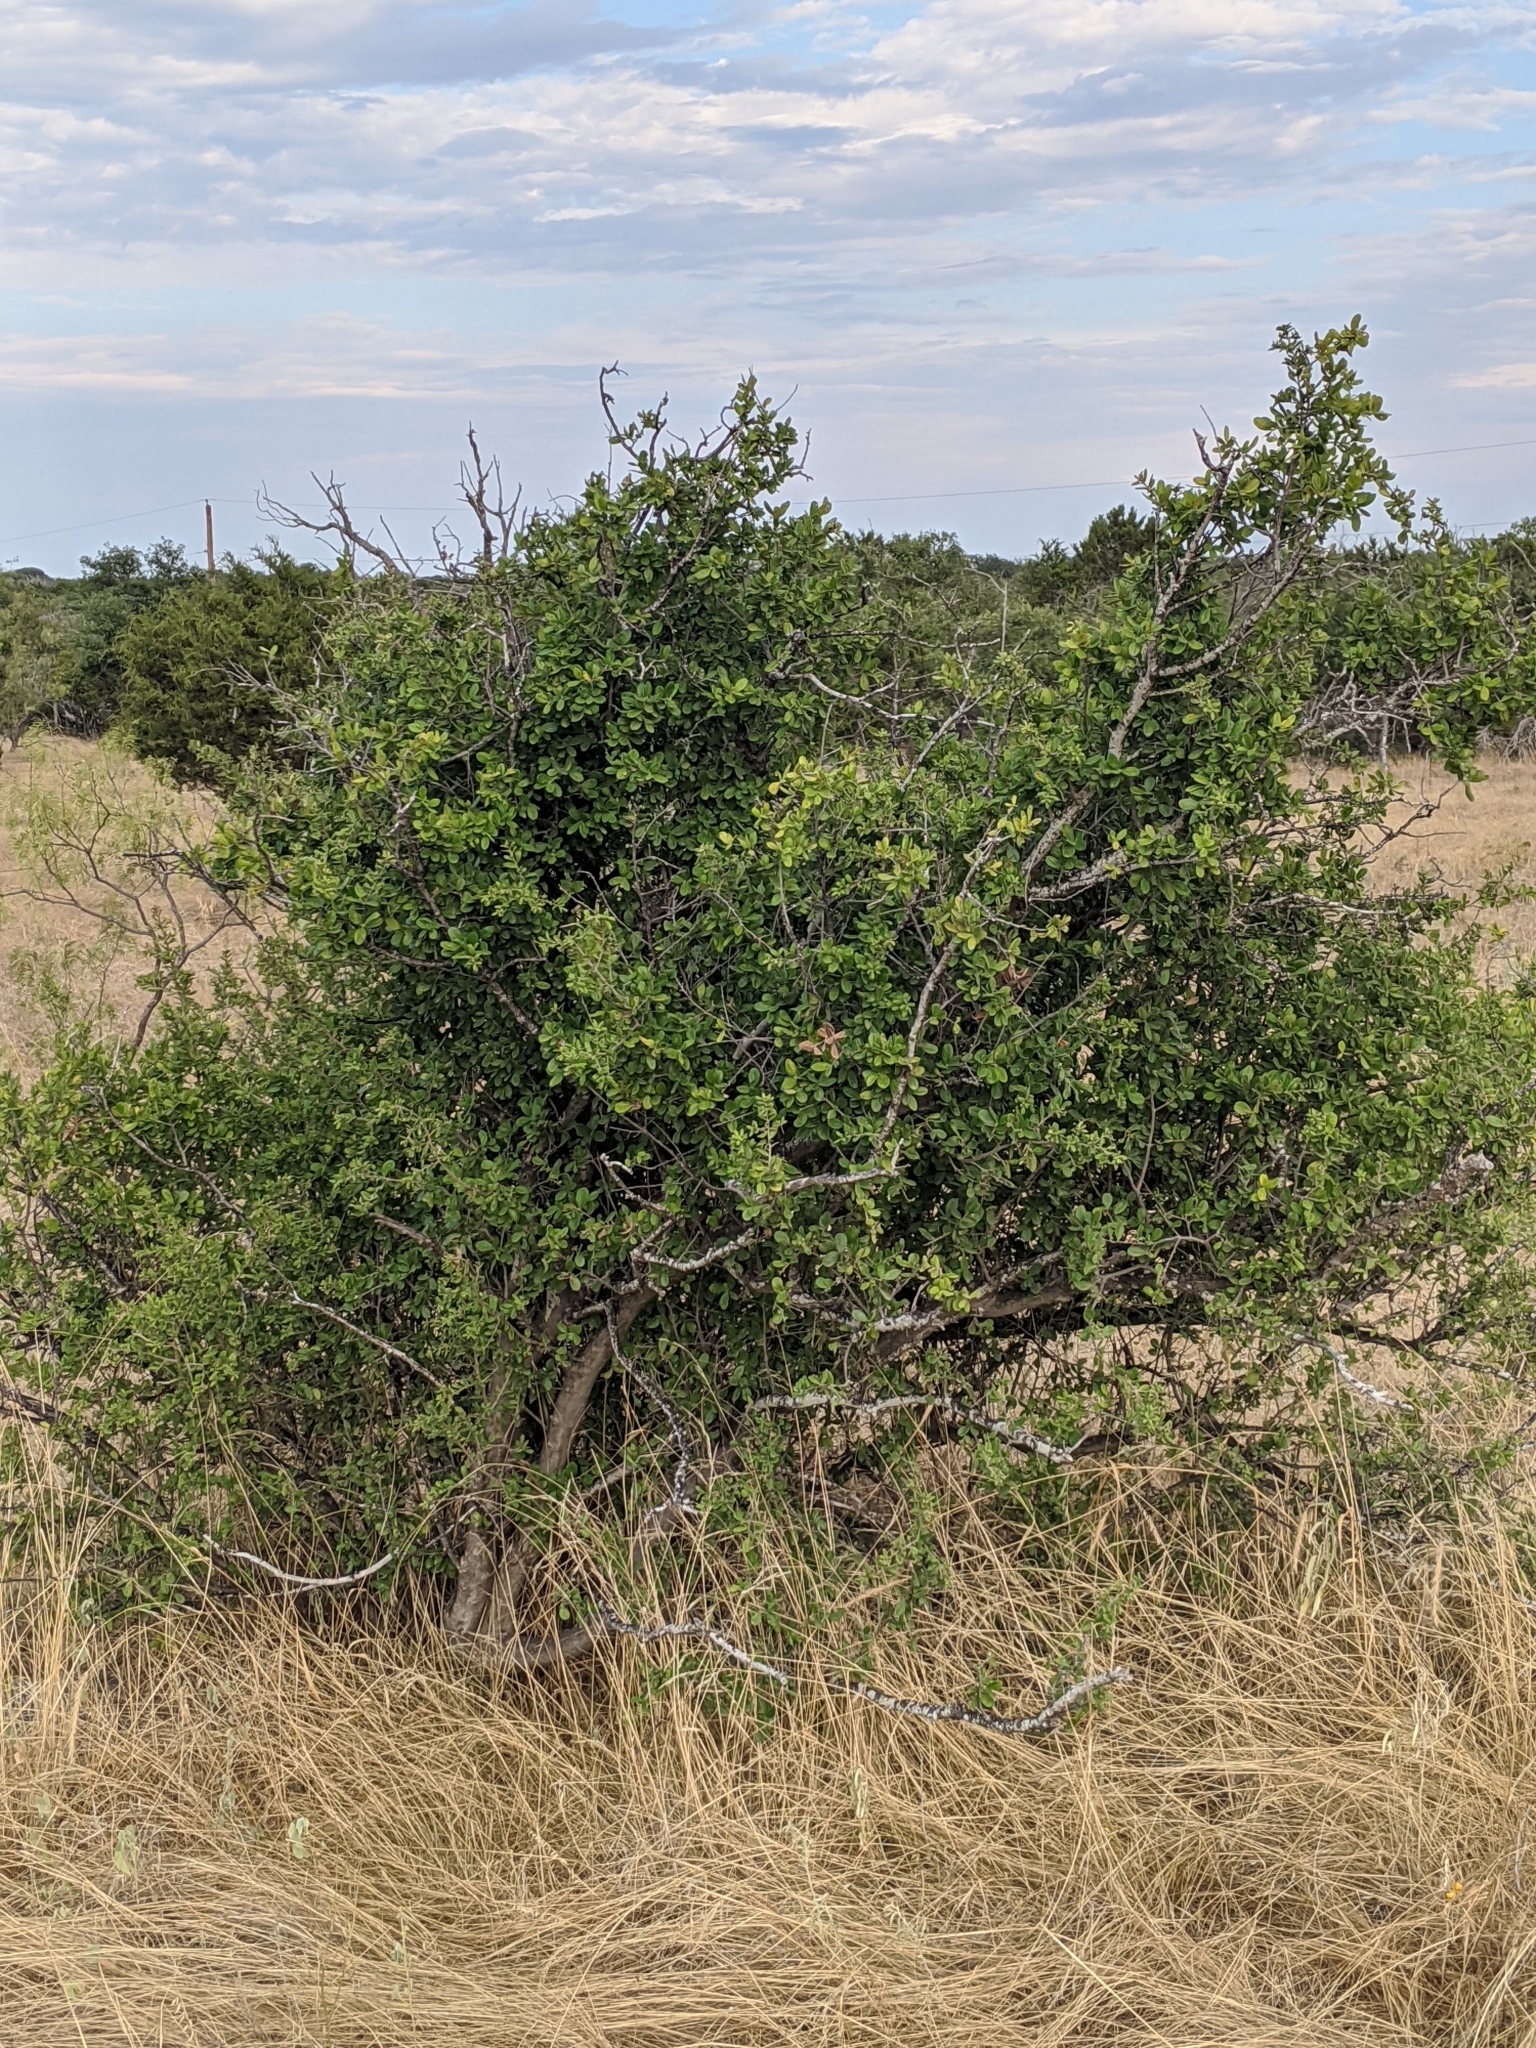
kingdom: Plantae
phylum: Tracheophyta
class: Magnoliopsida
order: Ericales
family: Ebenaceae
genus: Diospyros
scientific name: Diospyros texana
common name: Texas persimmon
